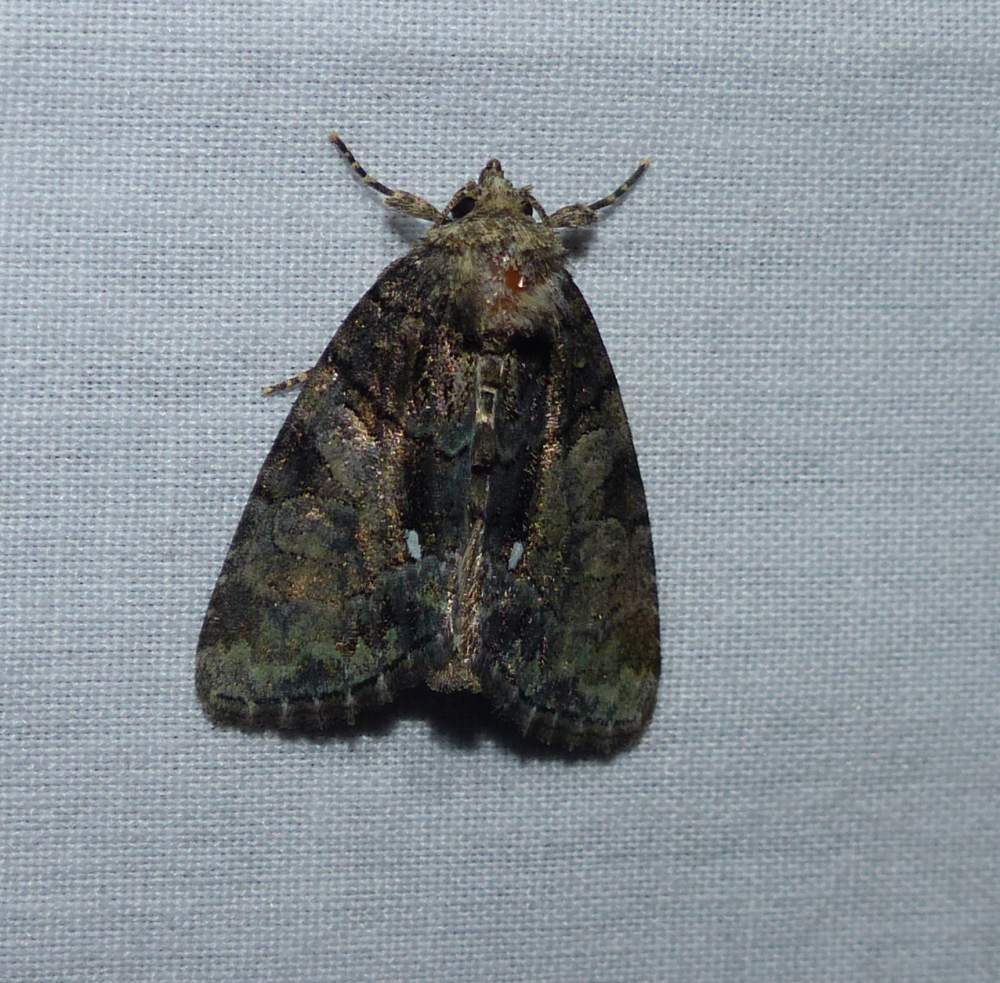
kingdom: Animalia
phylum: Arthropoda
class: Insecta
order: Lepidoptera
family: Noctuidae
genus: Chytonix
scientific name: Chytonix palliatricula
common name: Cloaked marvel
